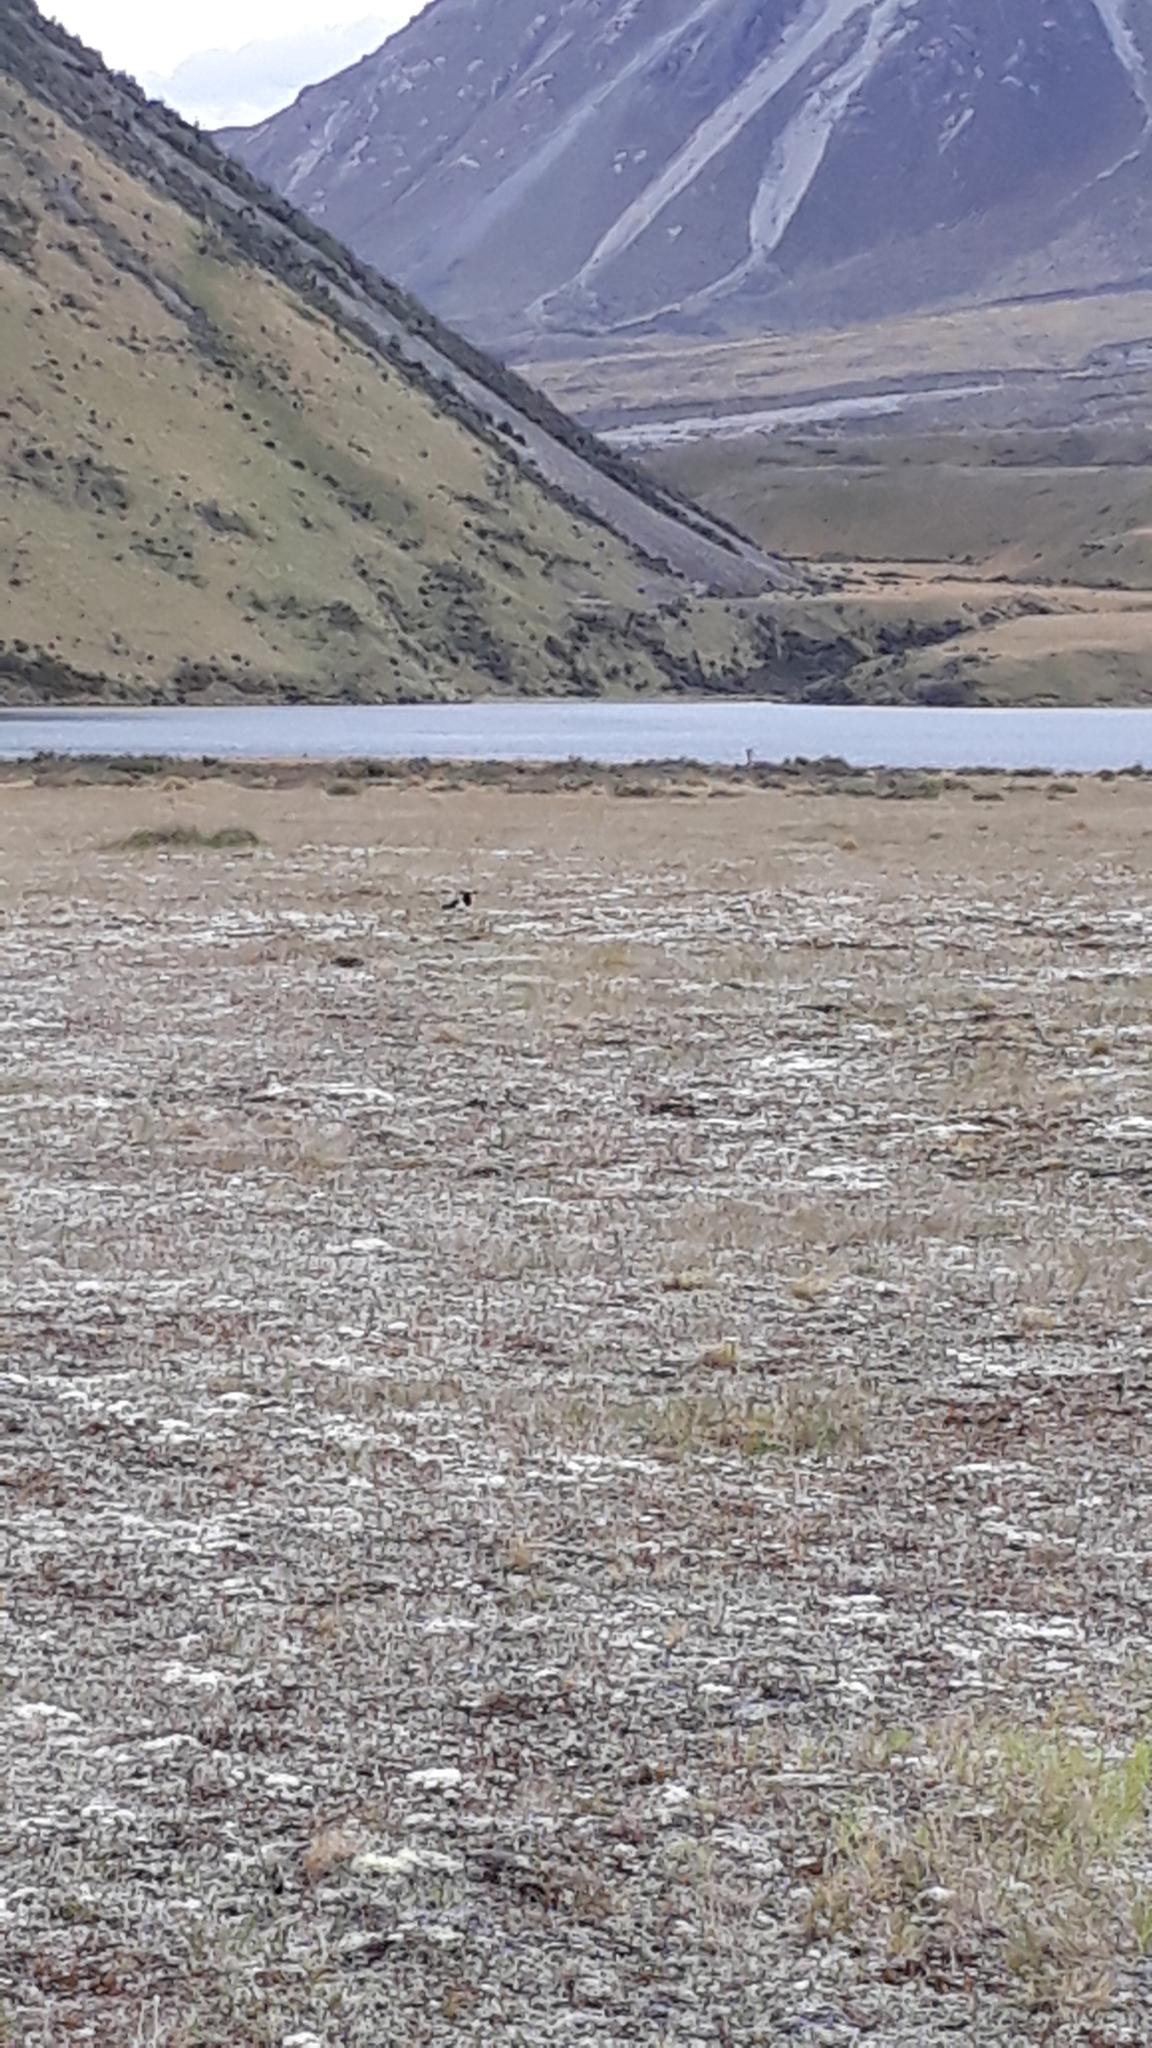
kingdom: Animalia
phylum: Chordata
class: Aves
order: Charadriiformes
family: Haematopodidae
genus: Haematopus
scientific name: Haematopus finschi
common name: South island oystercatcher
